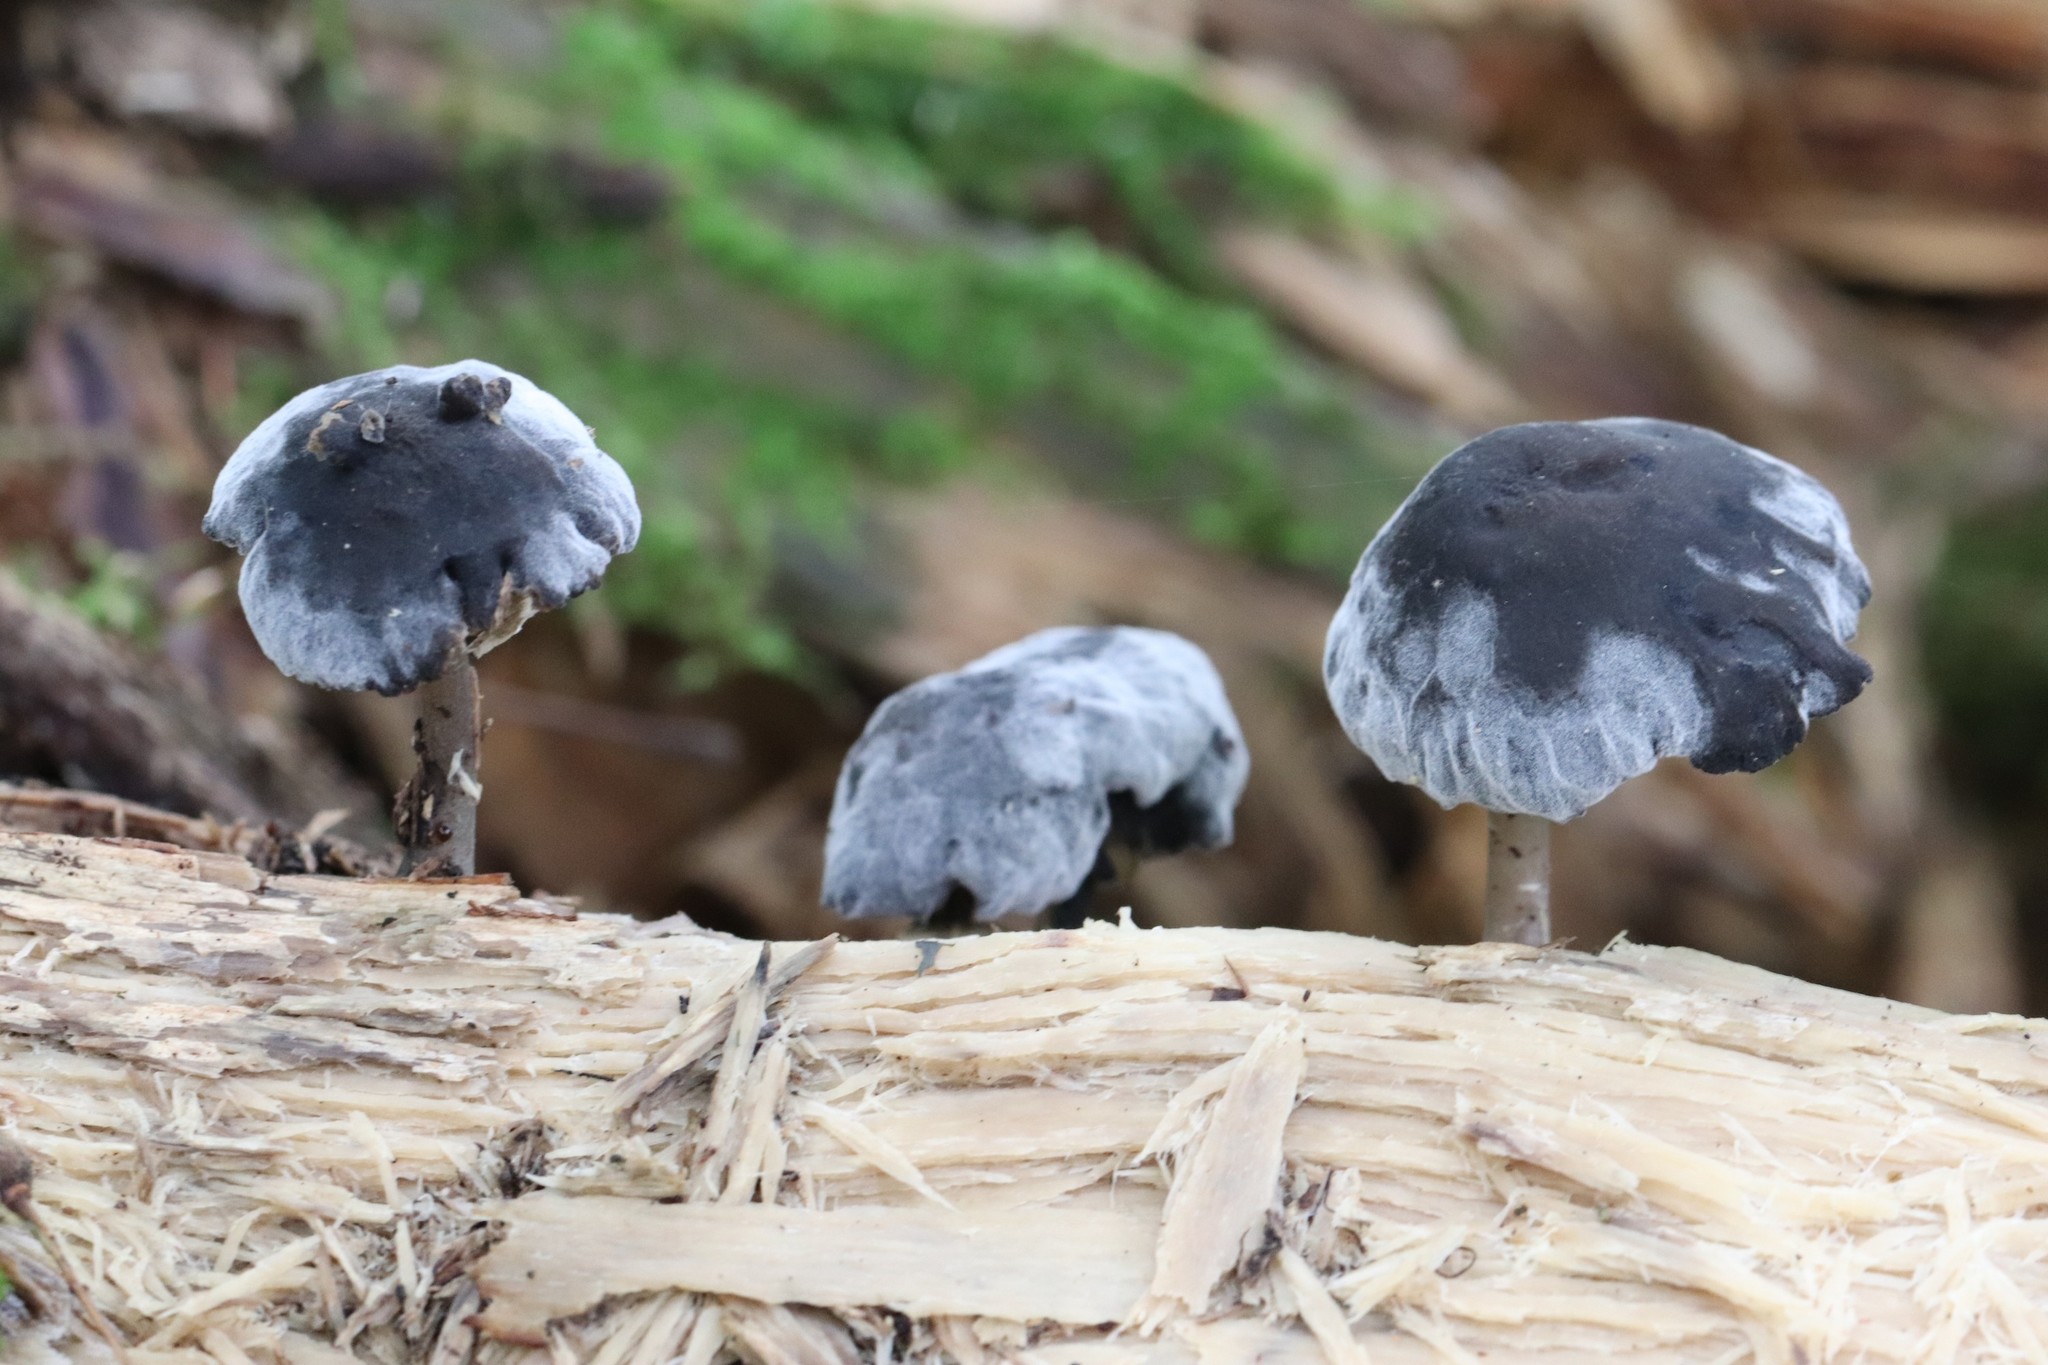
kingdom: Fungi
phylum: Basidiomycota
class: Agaricomycetes
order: Agaricales
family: Mycenaceae
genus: Hydropus
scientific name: Hydropus atramentosus
